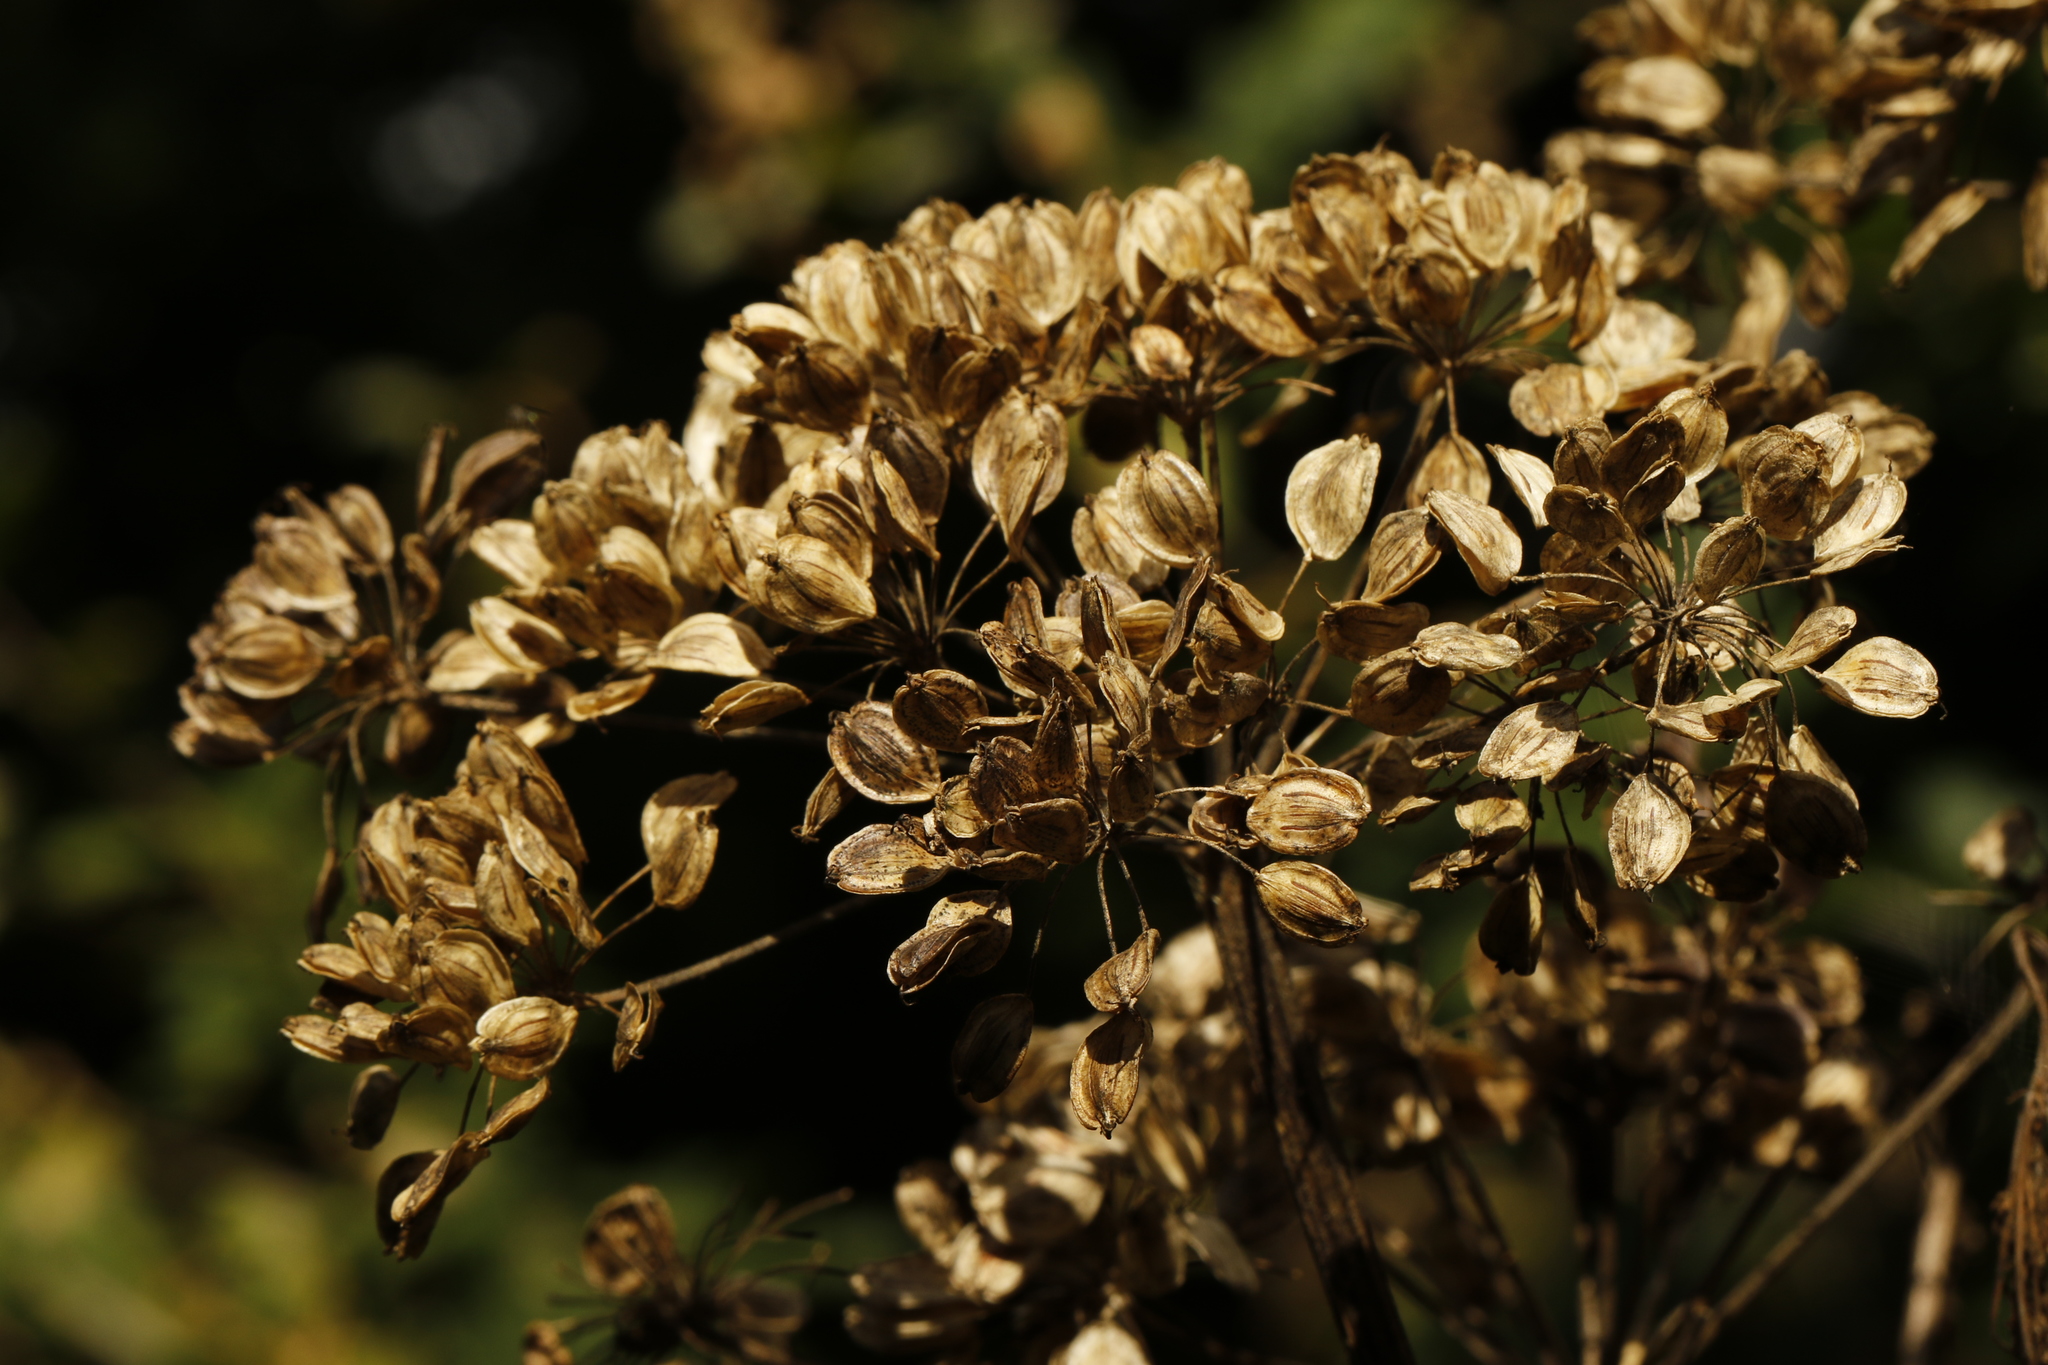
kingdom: Plantae
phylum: Tracheophyta
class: Magnoliopsida
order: Apiales
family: Apiaceae
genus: Heracleum
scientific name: Heracleum sphondylium
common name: Hogweed
